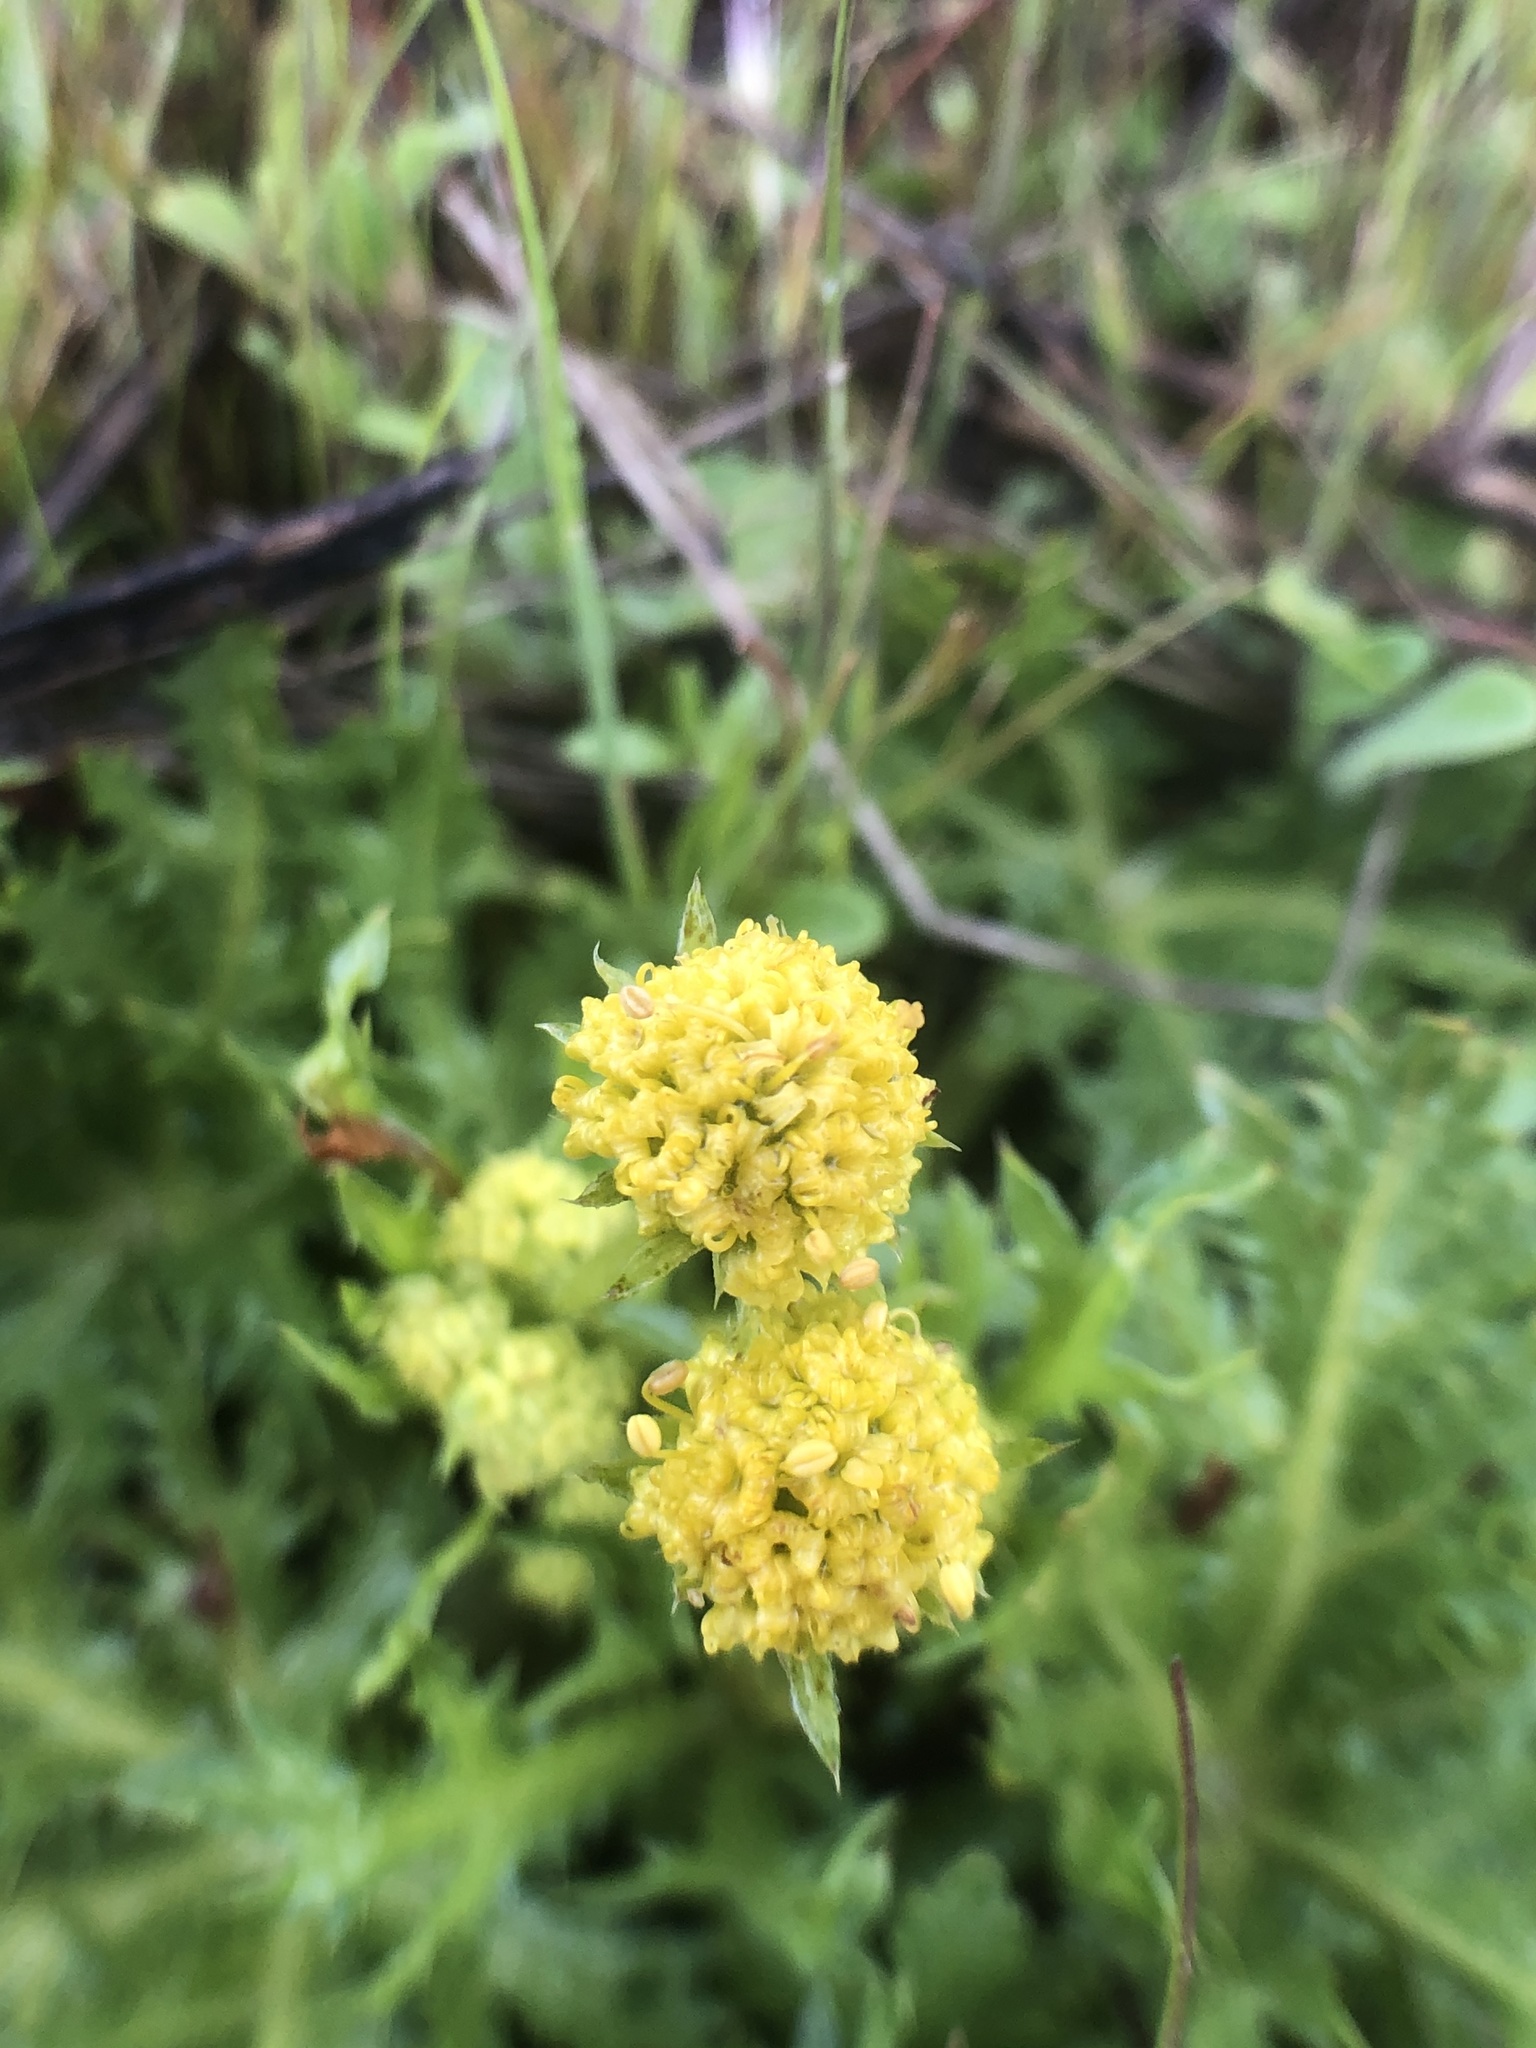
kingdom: Plantae
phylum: Tracheophyta
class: Magnoliopsida
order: Apiales
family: Apiaceae
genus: Sanicula
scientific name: Sanicula arguta
